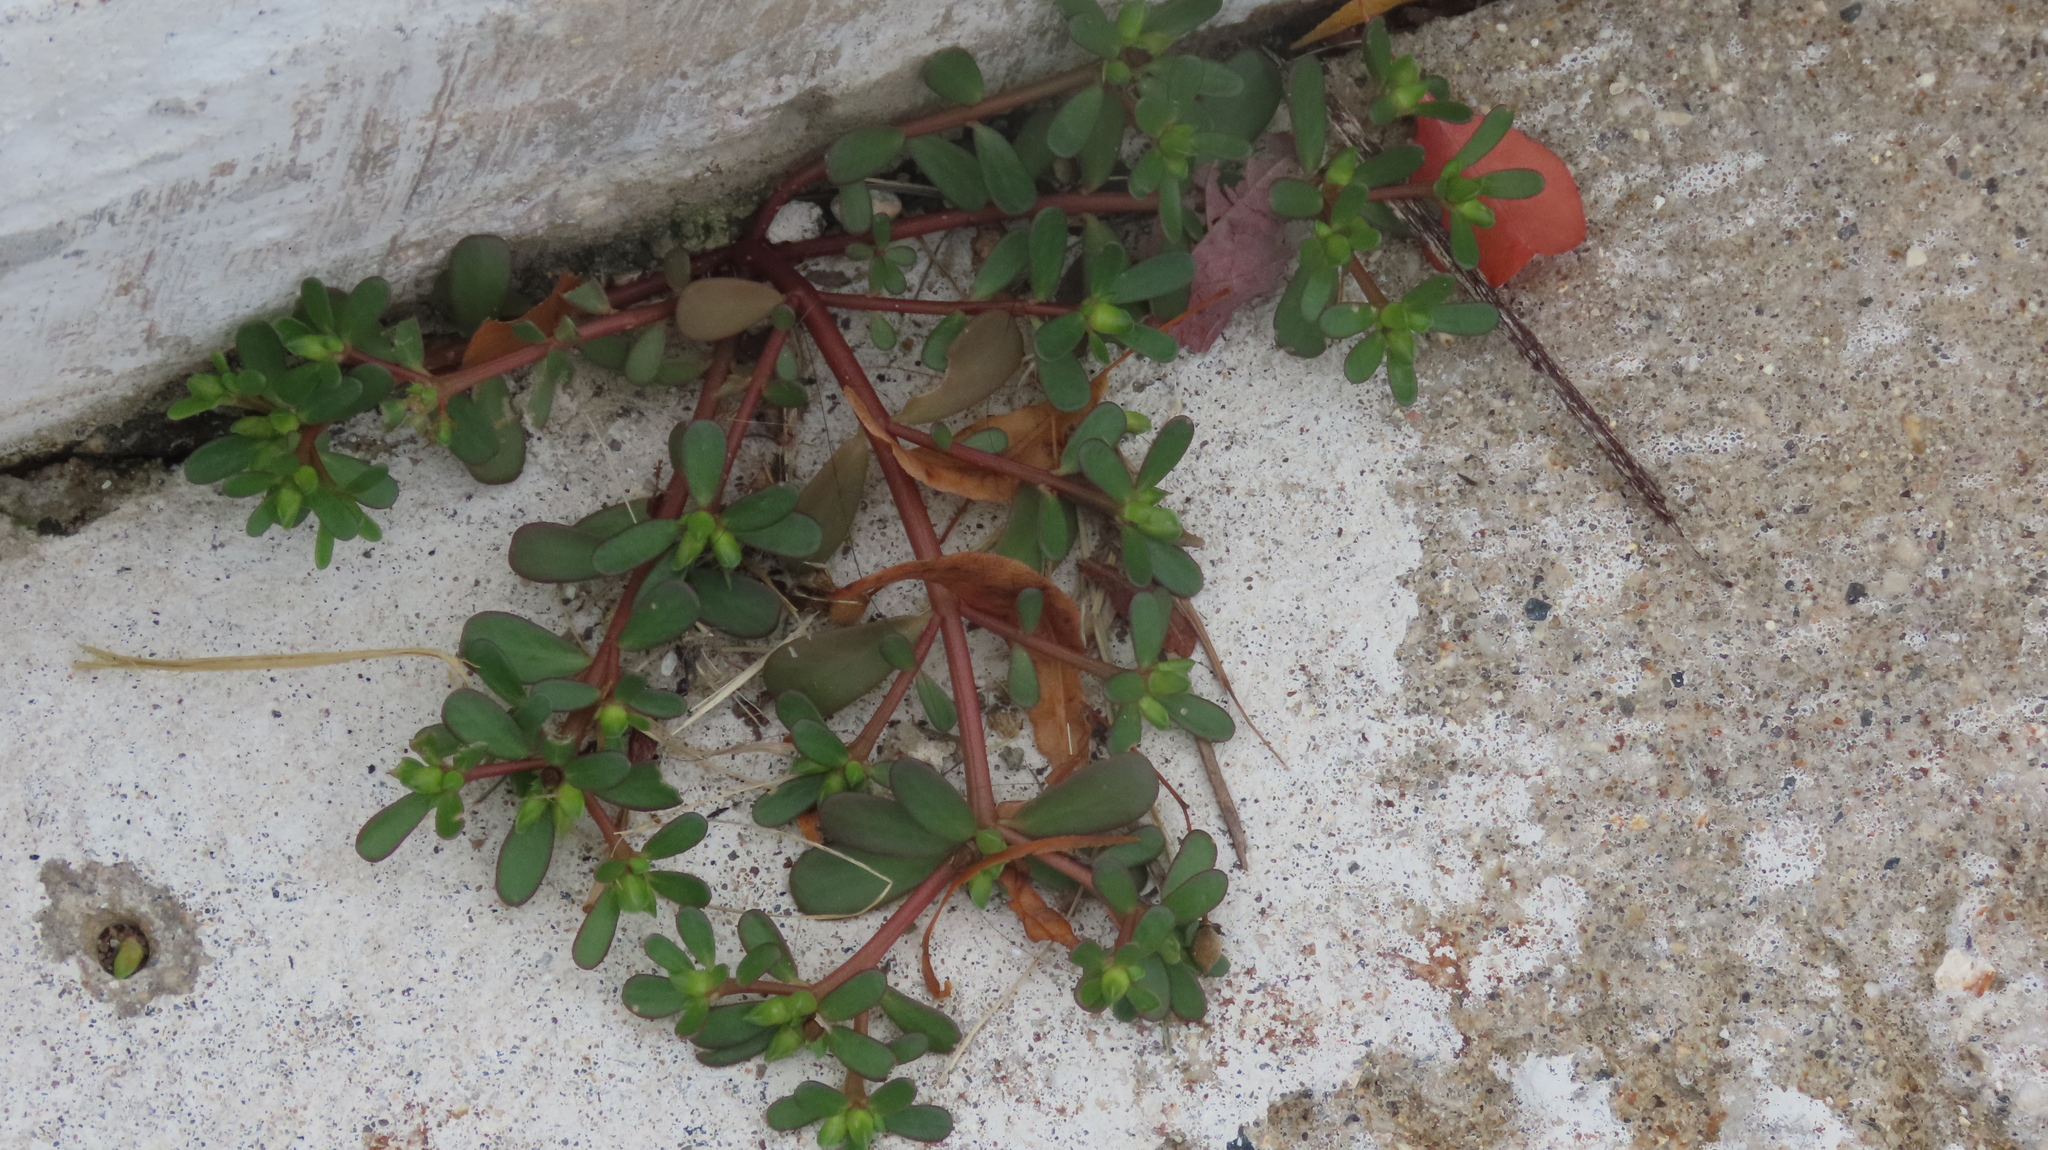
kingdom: Plantae
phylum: Tracheophyta
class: Magnoliopsida
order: Caryophyllales
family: Portulacaceae
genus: Portulaca
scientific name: Portulaca oleracea
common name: Common purslane
